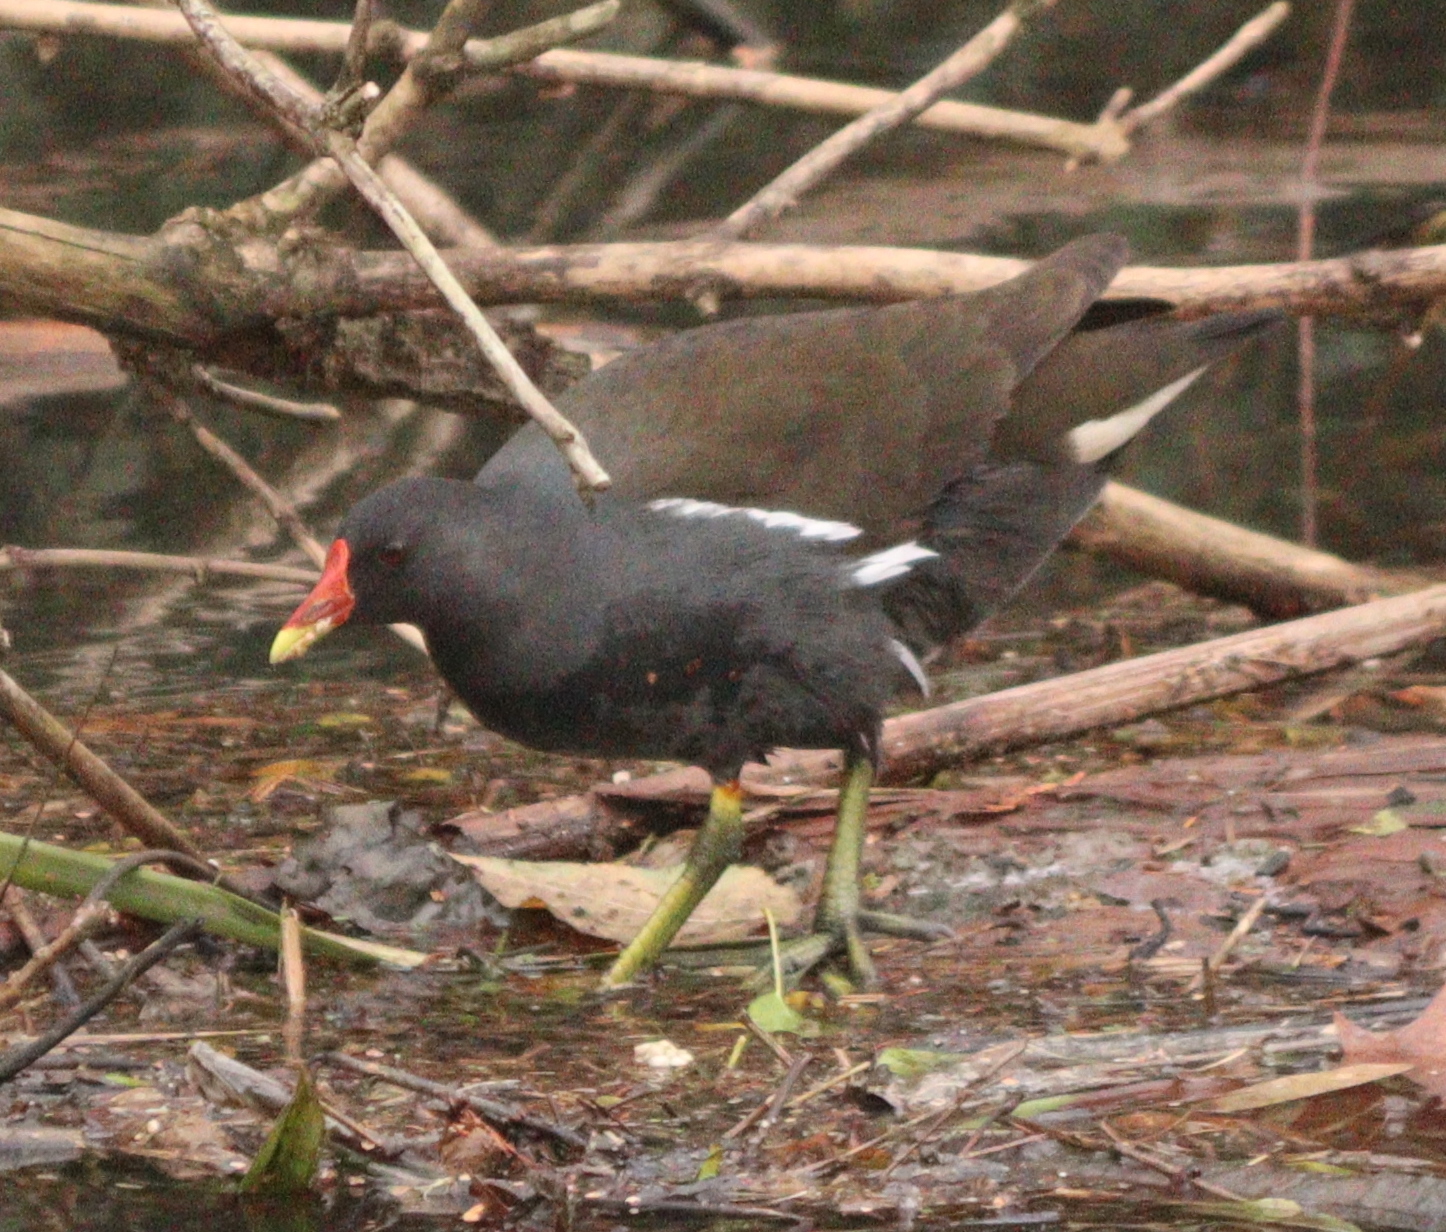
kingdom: Animalia
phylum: Chordata
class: Aves
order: Gruiformes
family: Rallidae
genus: Gallinula
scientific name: Gallinula chloropus
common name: Common moorhen
